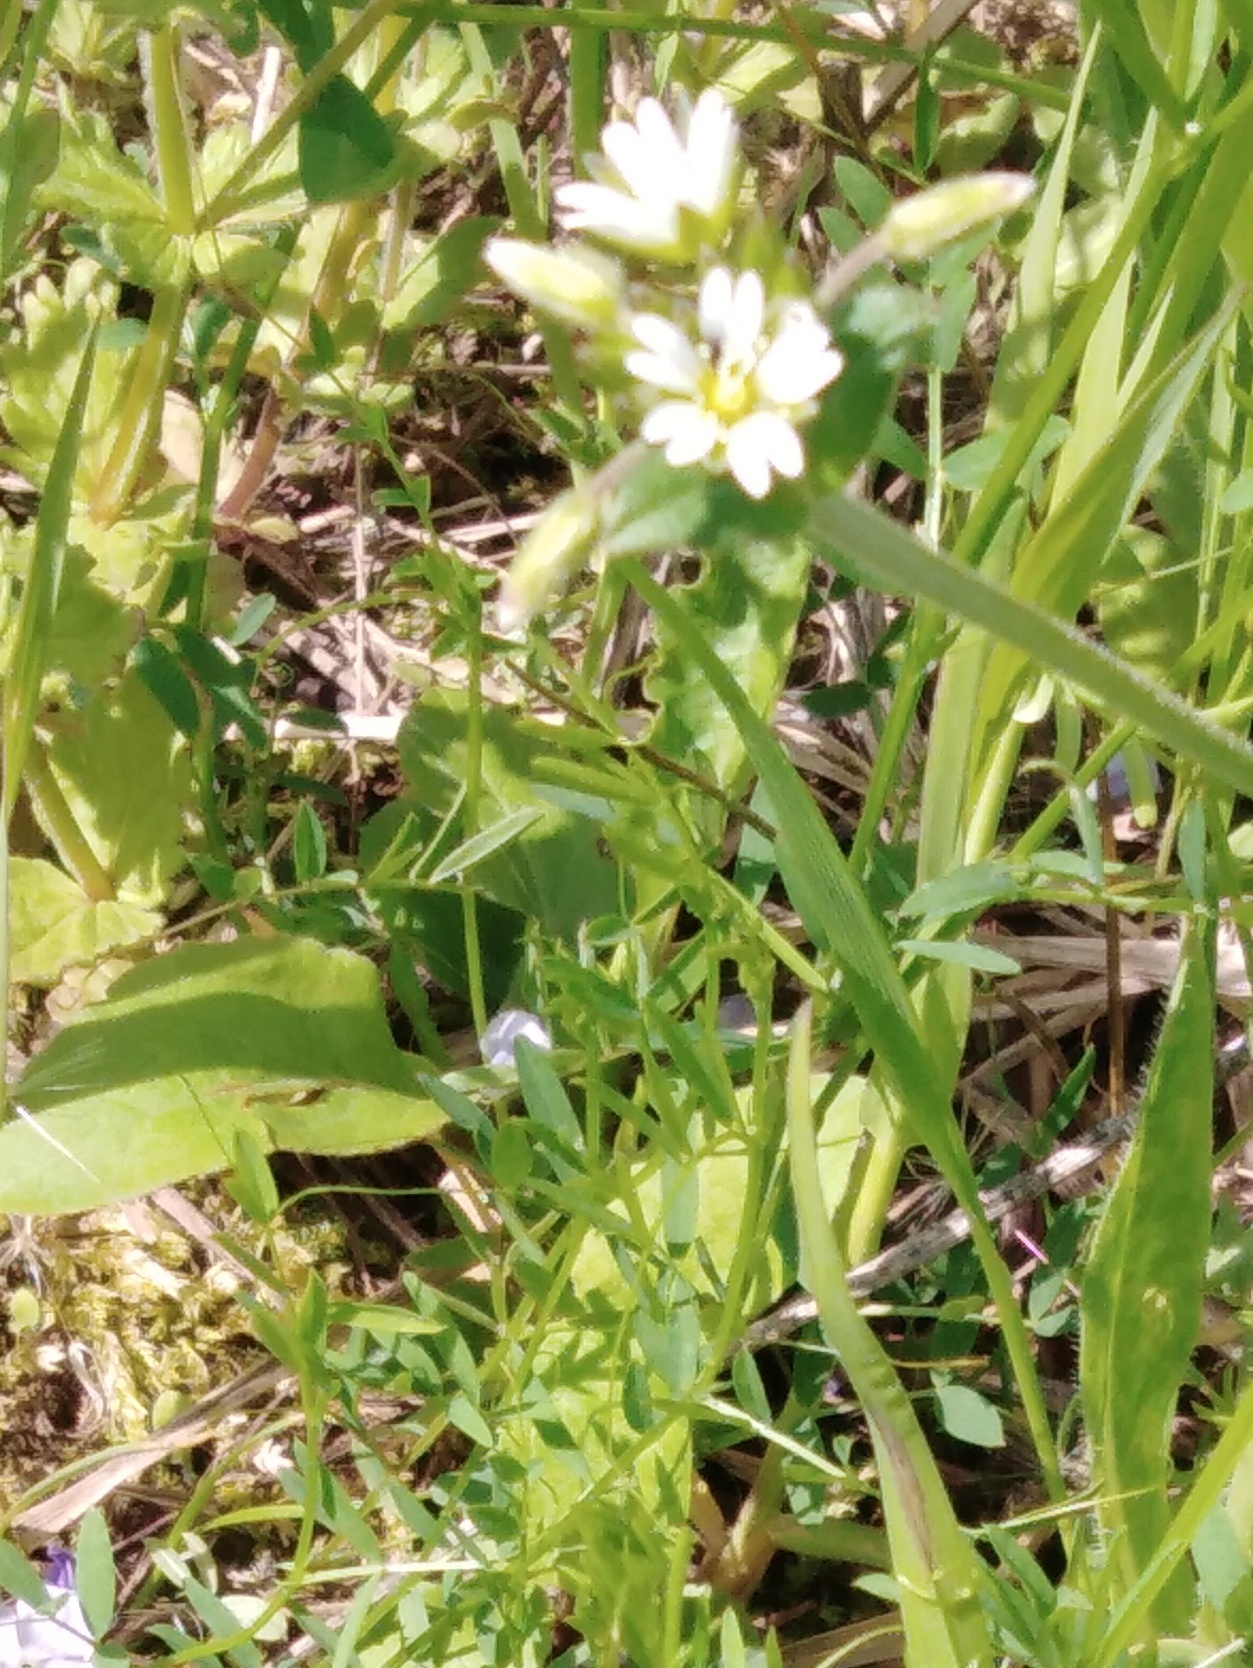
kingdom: Plantae
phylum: Tracheophyta
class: Magnoliopsida
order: Caryophyllales
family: Caryophyllaceae
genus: Cerastium
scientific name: Cerastium holosteoides
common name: Big chickweed
